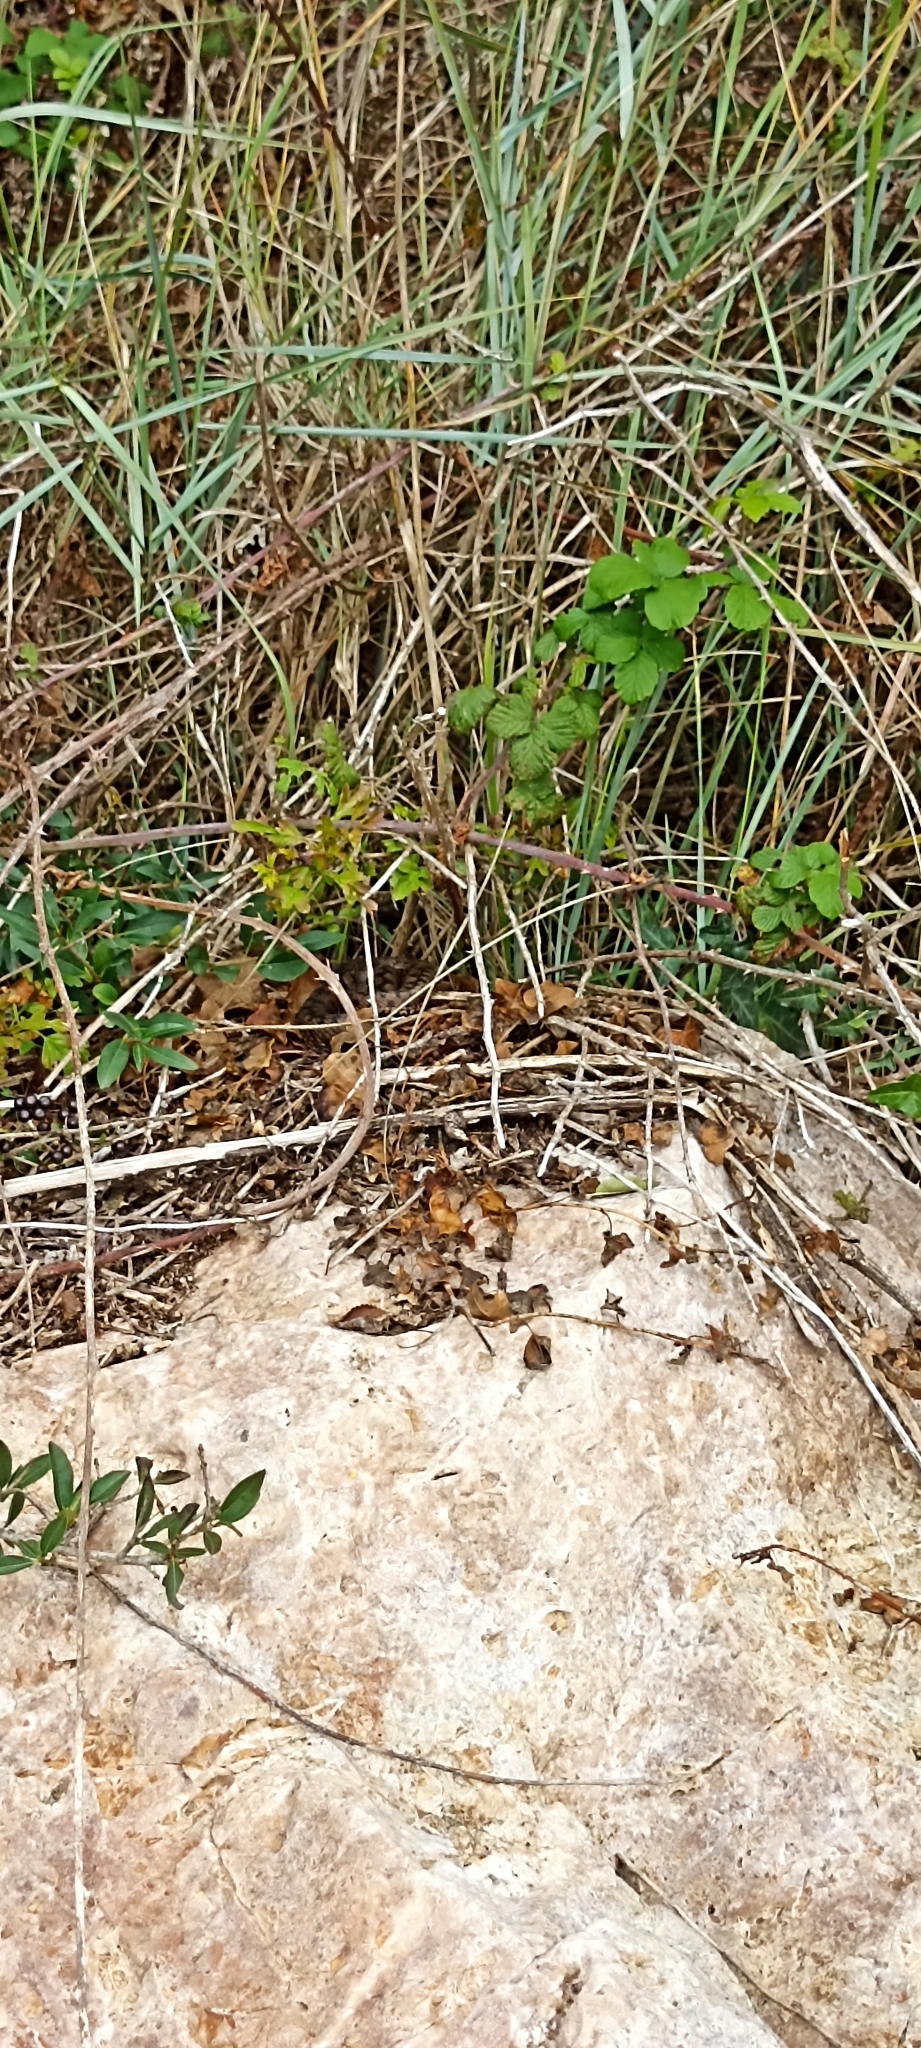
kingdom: Animalia
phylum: Chordata
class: Squamata
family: Viperidae
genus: Vipera
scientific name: Vipera aspis
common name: Asp viper
